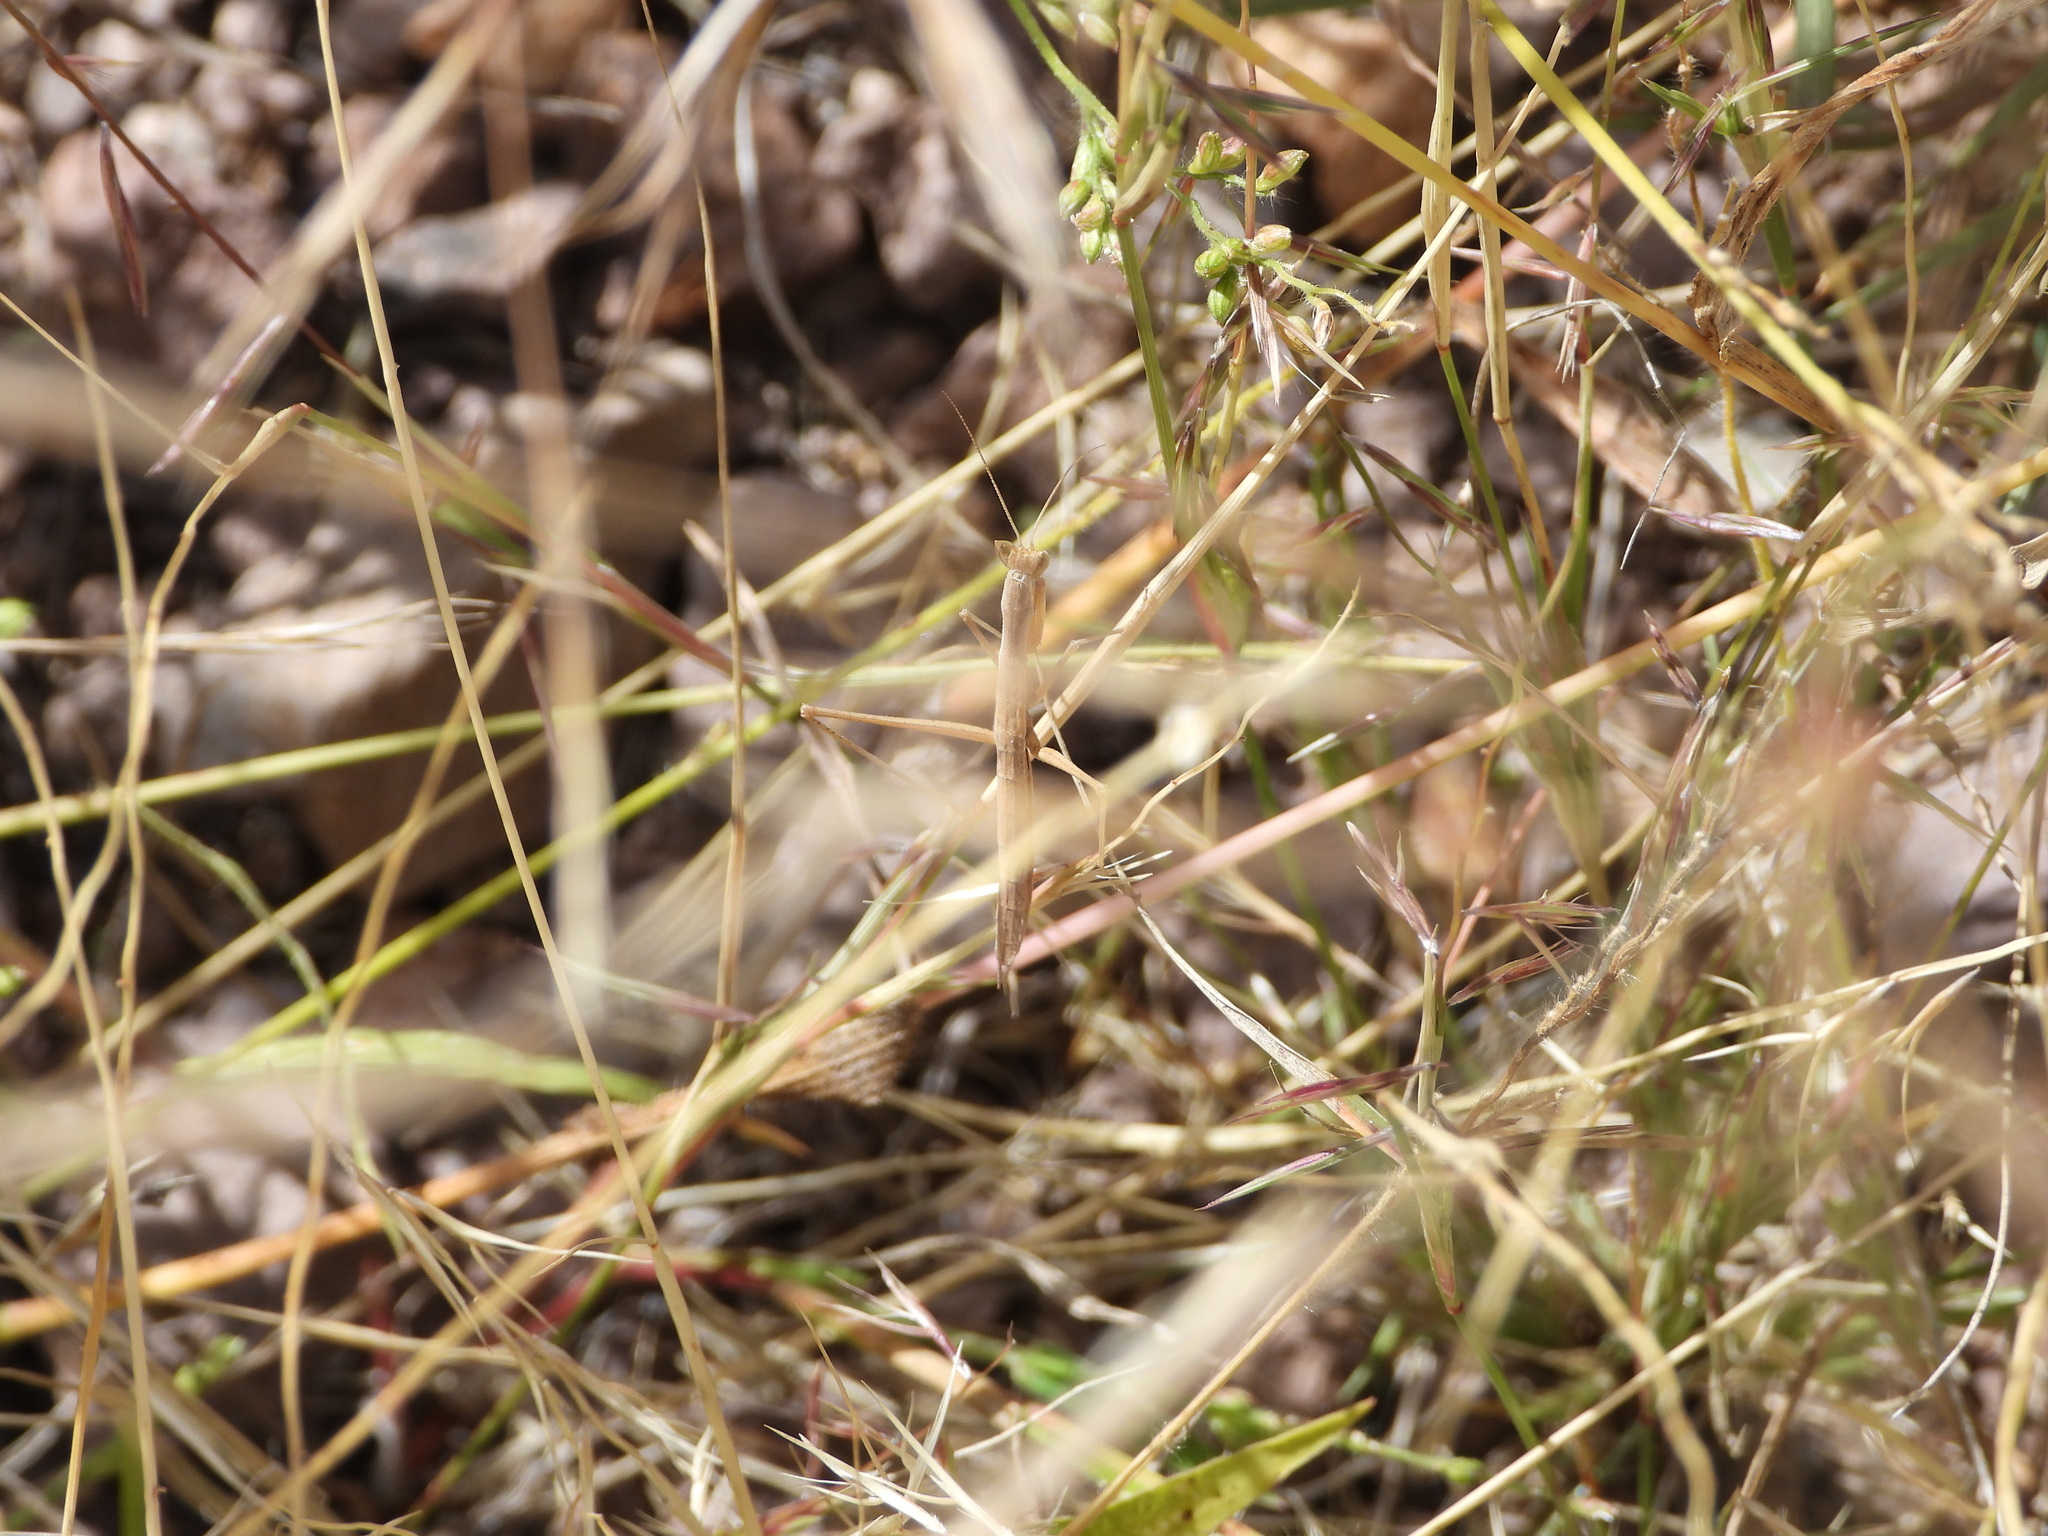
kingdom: Animalia
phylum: Arthropoda
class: Insecta
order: Mantodea
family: Amelidae
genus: Yersiniops
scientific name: Yersiniops solitarius
